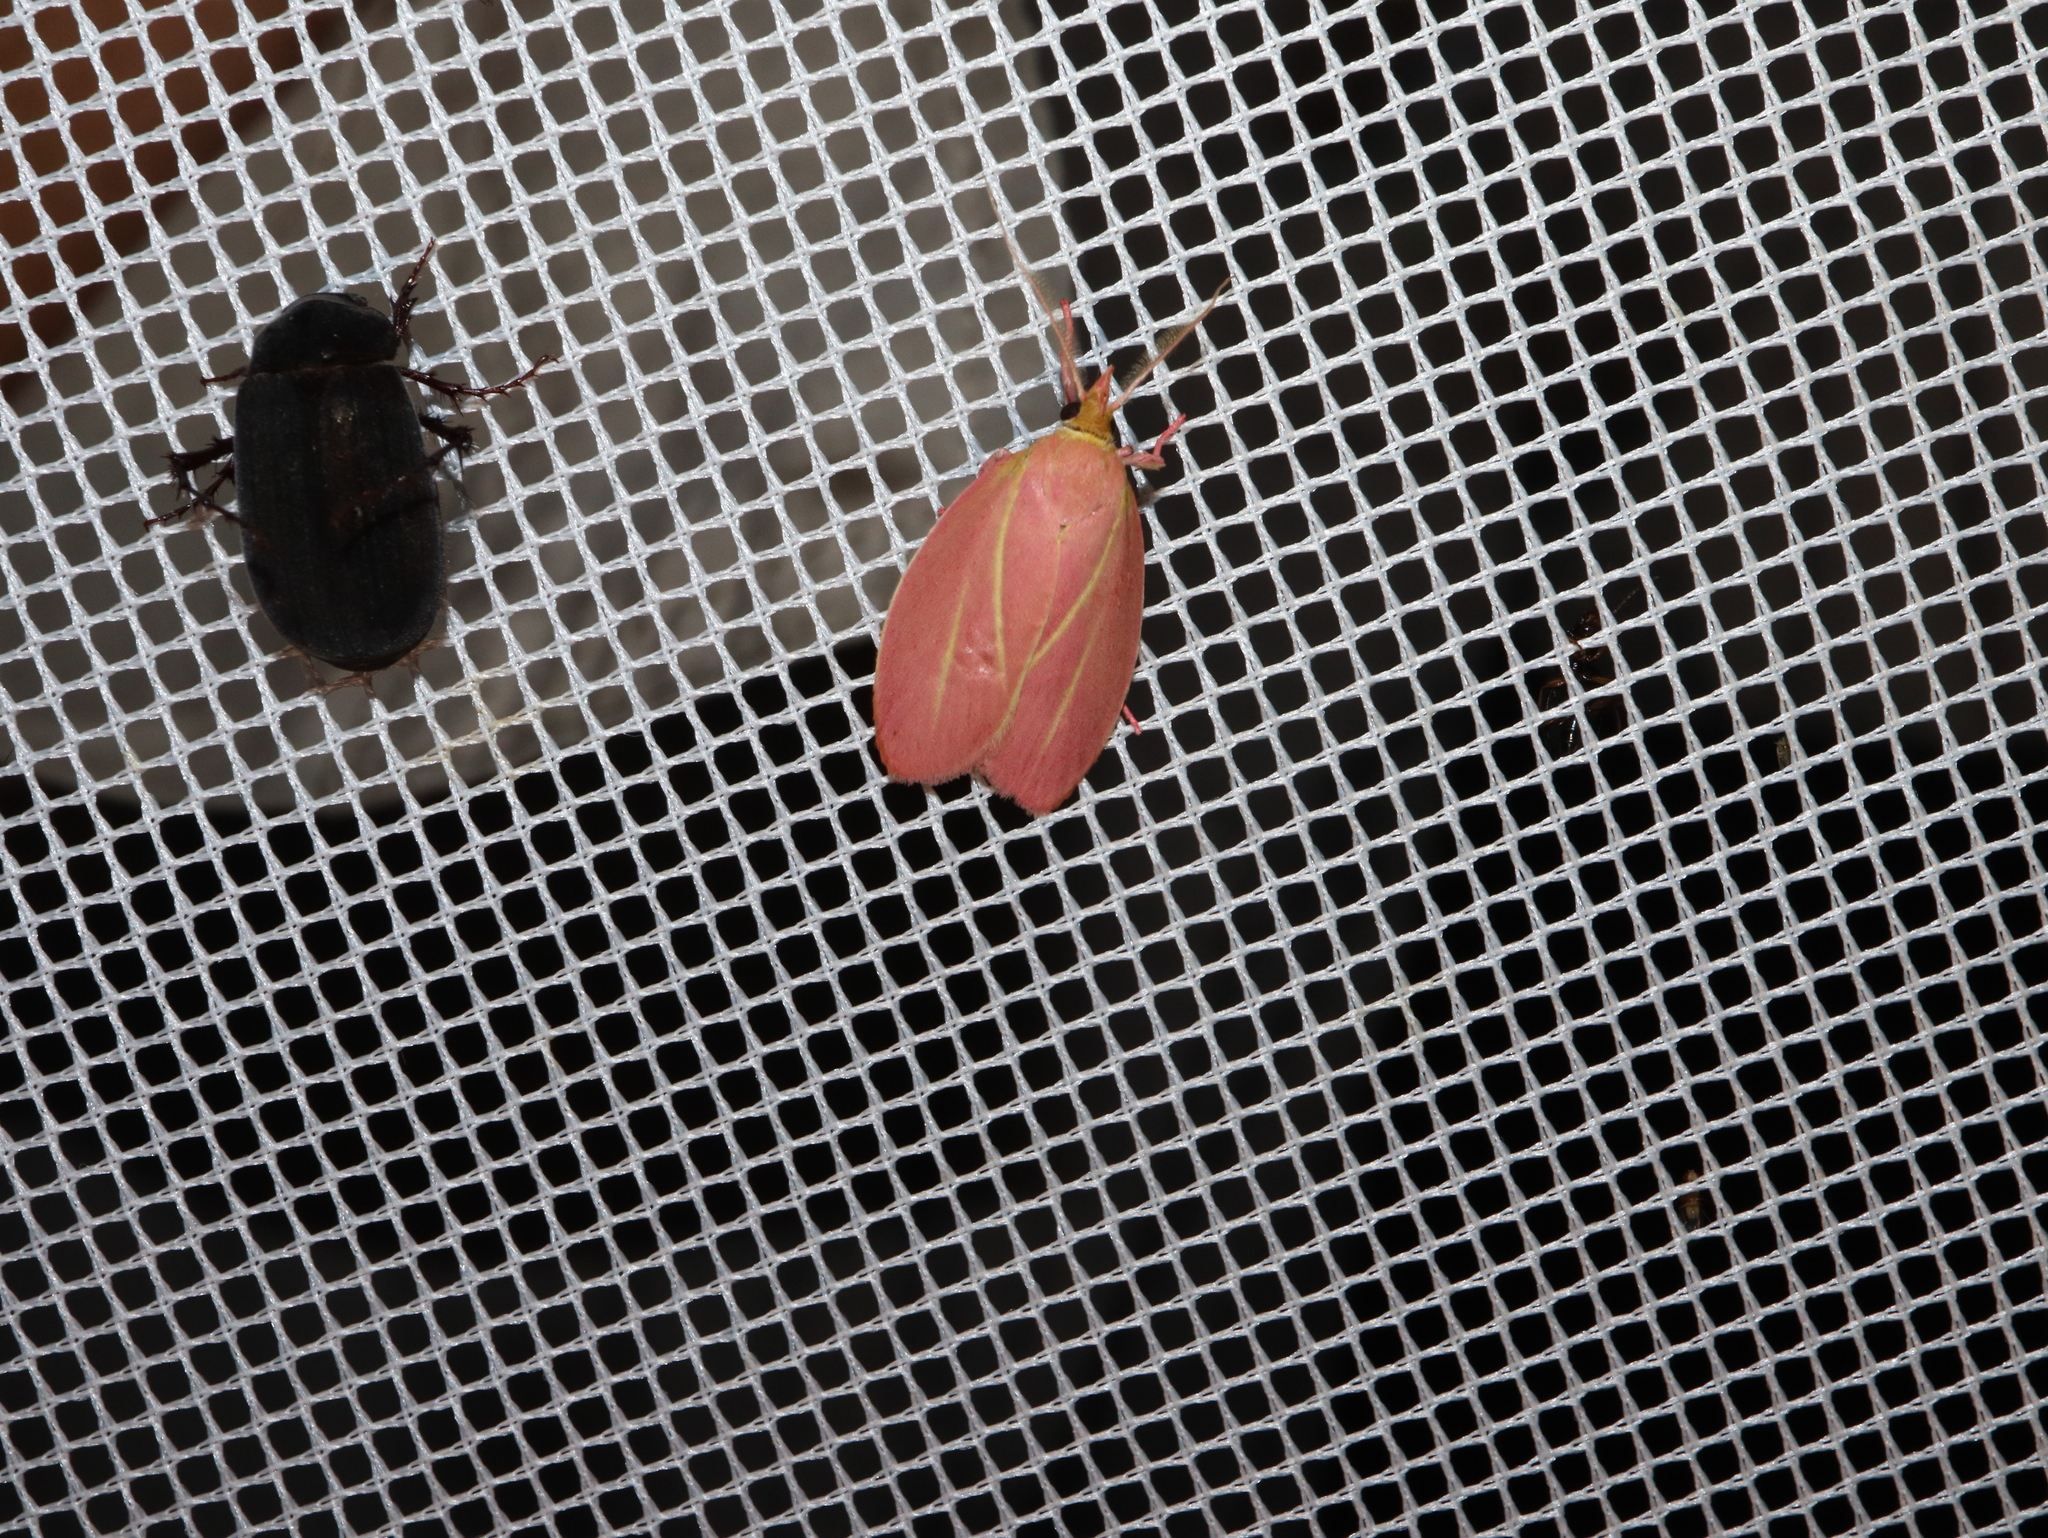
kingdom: Animalia
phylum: Arthropoda
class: Insecta
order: Lepidoptera
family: Oecophoridae
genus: Wingia
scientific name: Wingia lambertella
